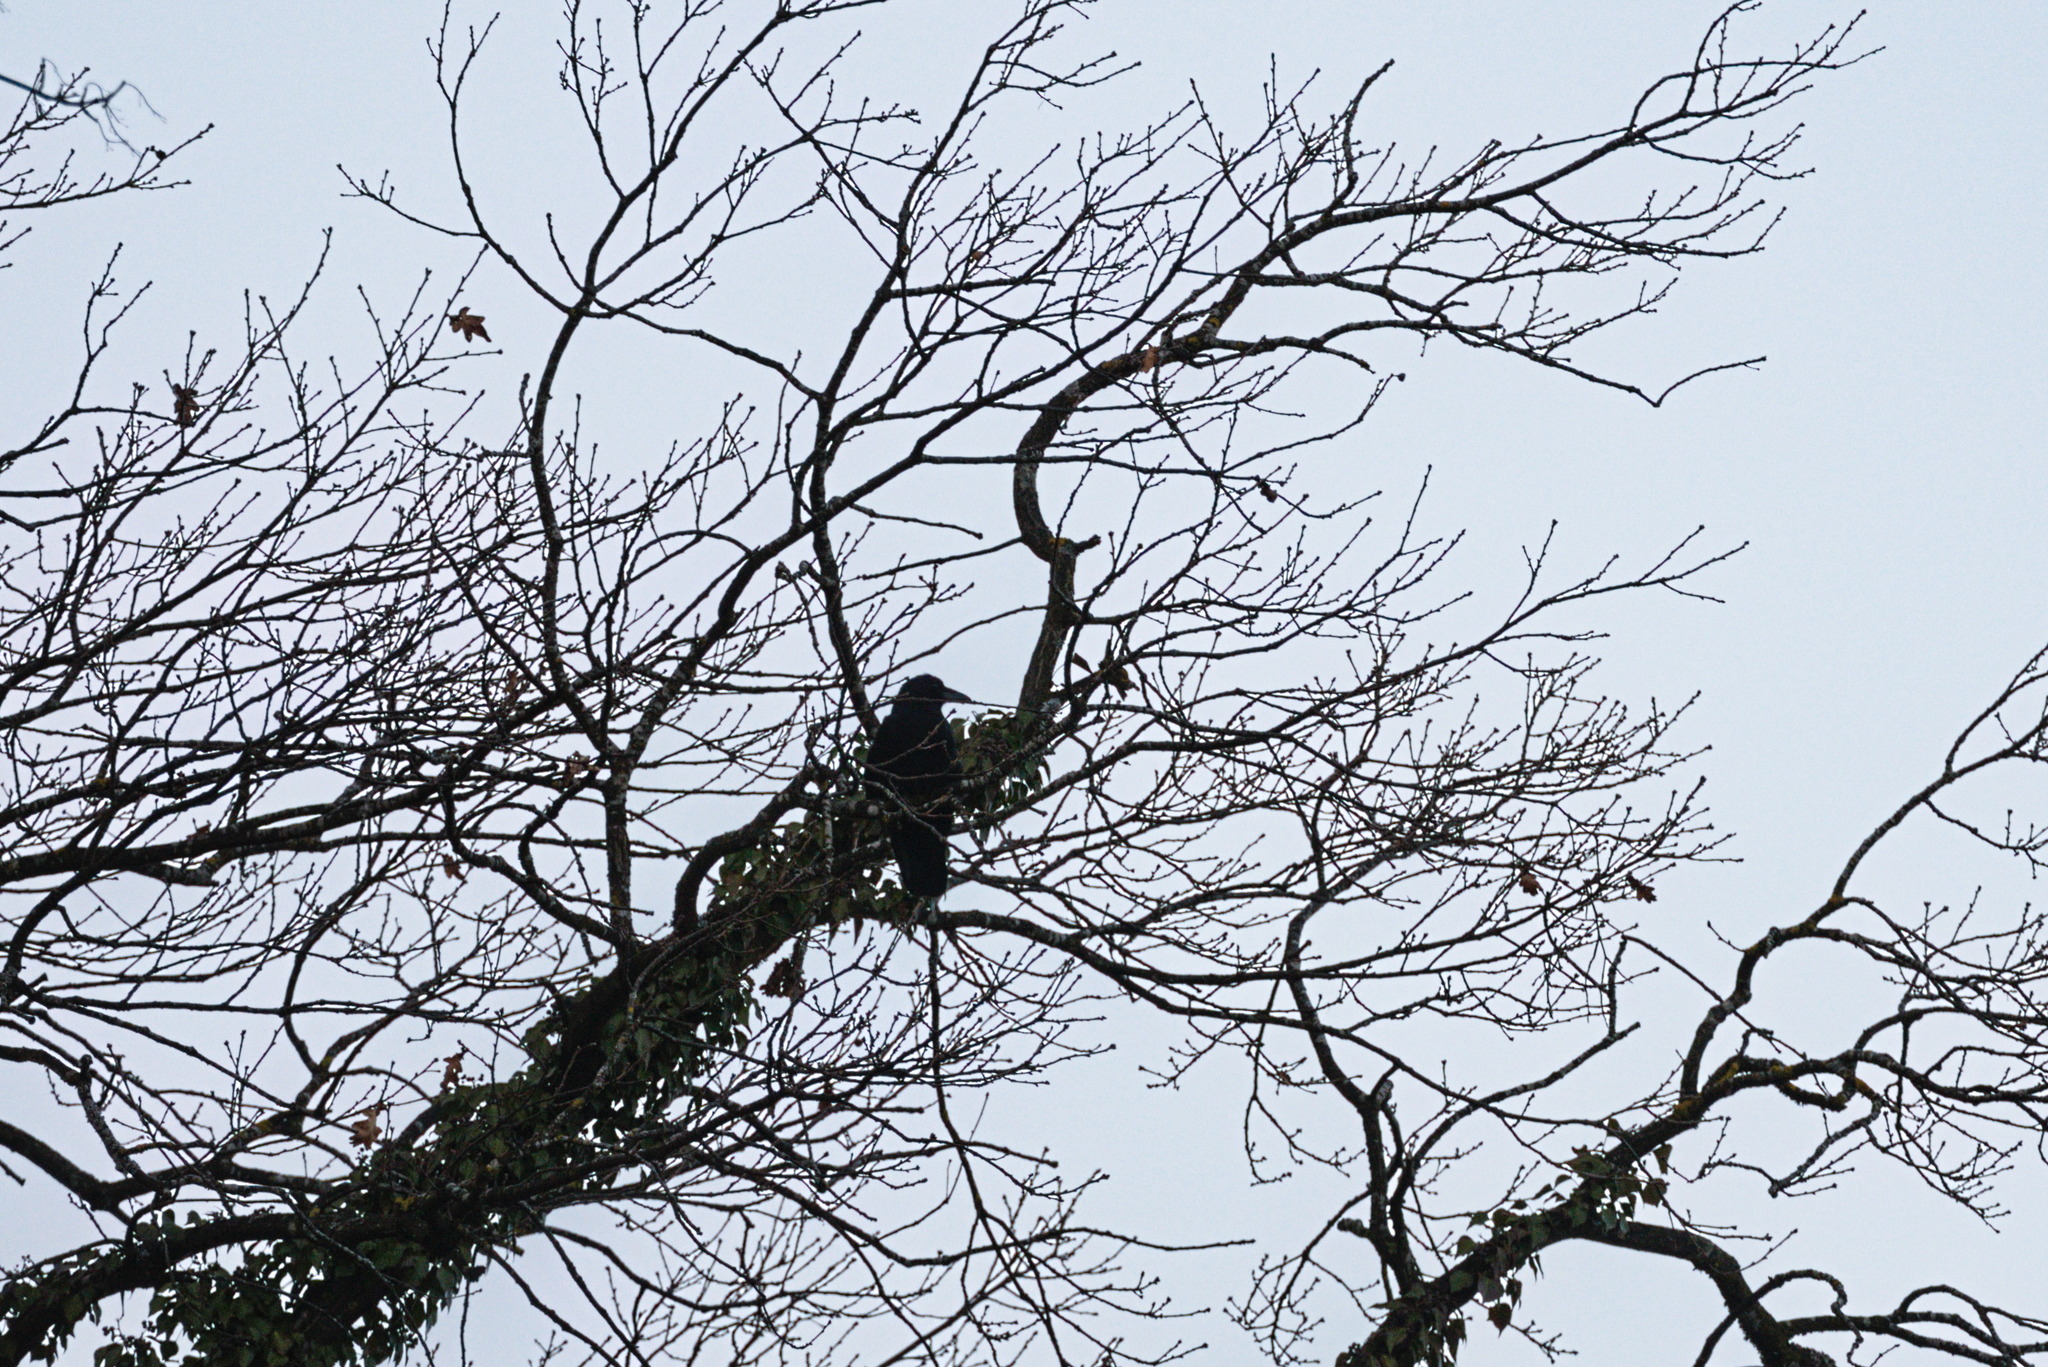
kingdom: Animalia
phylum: Chordata
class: Aves
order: Passeriformes
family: Corvidae
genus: Corvus
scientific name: Corvus corone
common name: Carrion crow
